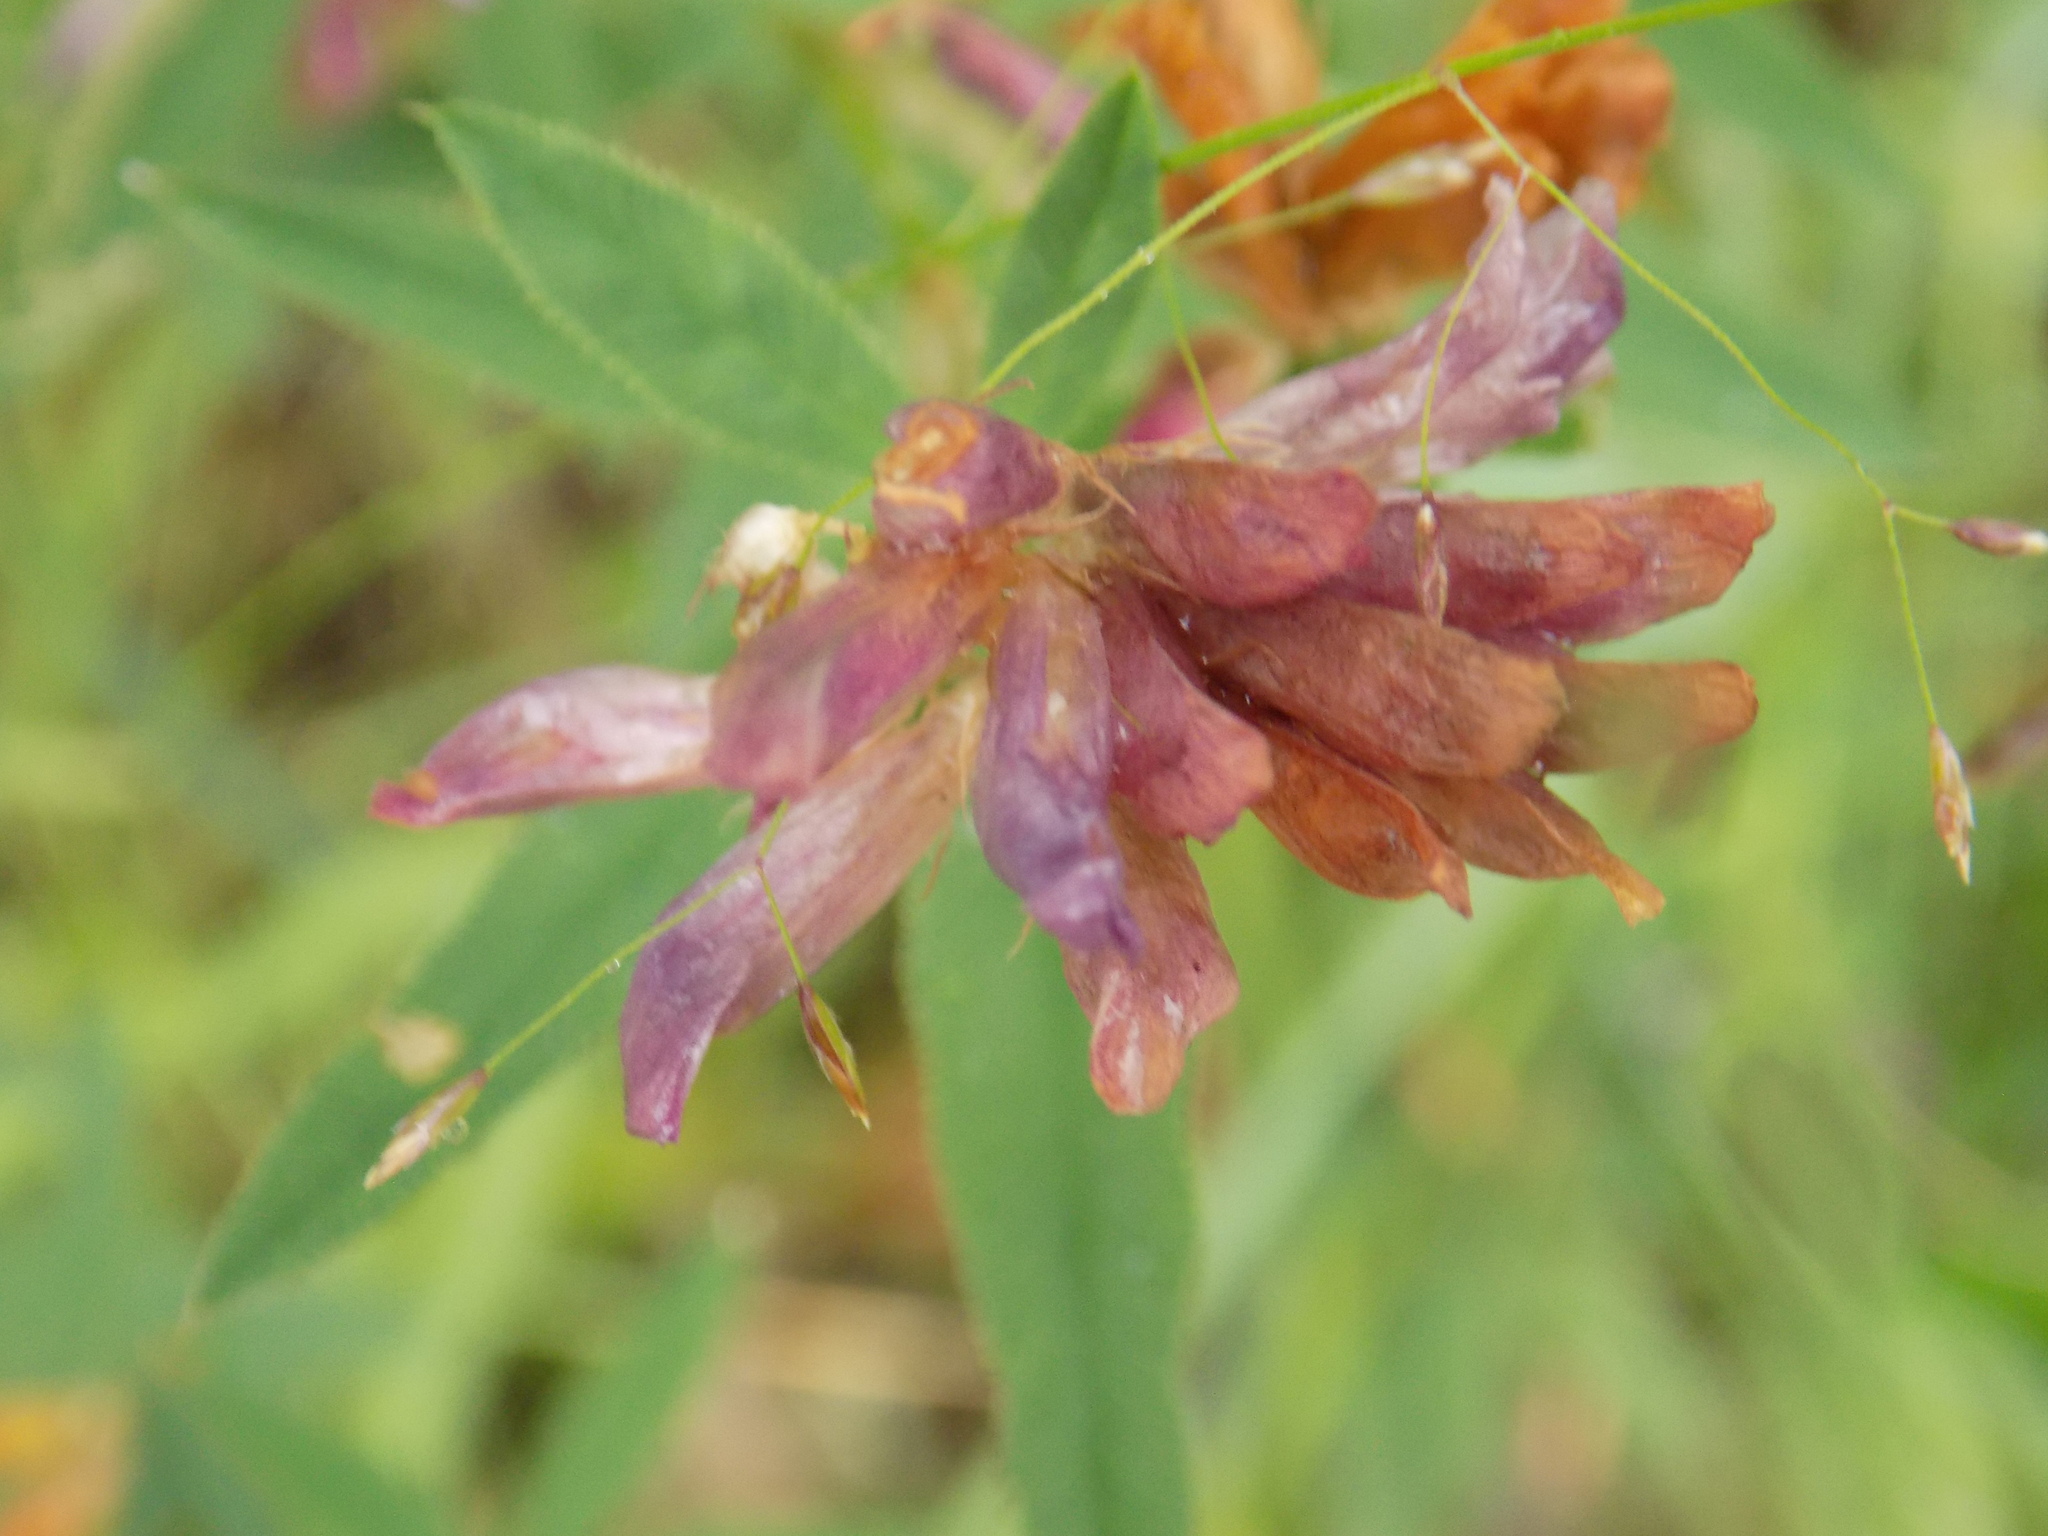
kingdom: Plantae
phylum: Tracheophyta
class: Magnoliopsida
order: Fabales
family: Fabaceae
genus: Trifolium
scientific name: Trifolium lupinaster
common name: Lupine clover
